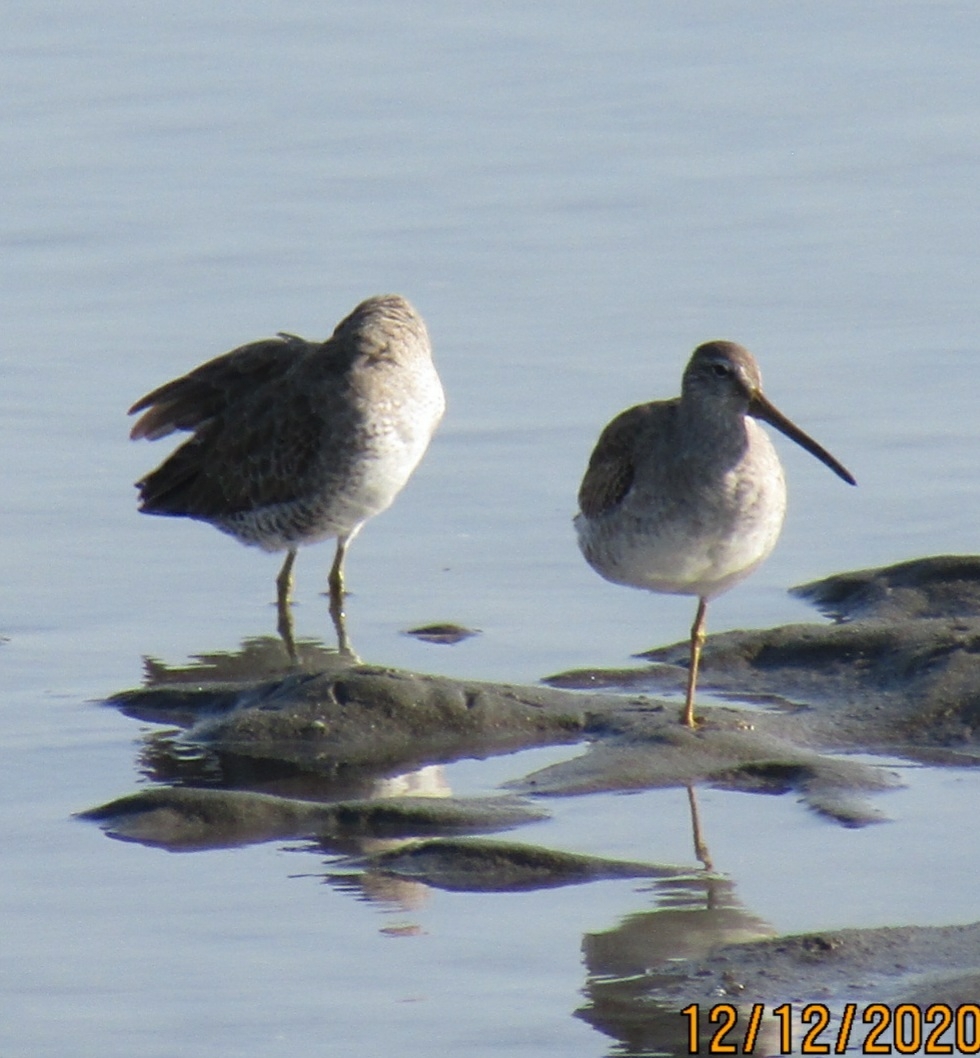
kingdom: Animalia
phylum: Chordata
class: Aves
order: Charadriiformes
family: Scolopacidae
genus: Limnodromus
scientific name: Limnodromus
